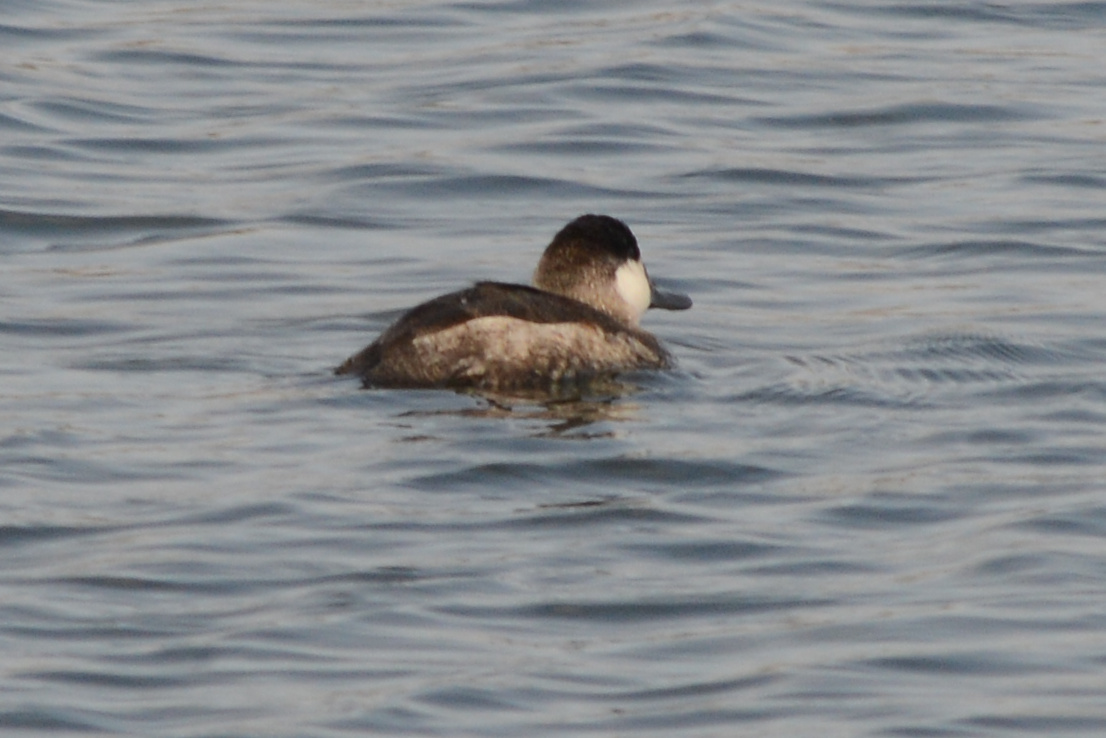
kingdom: Animalia
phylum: Chordata
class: Aves
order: Anseriformes
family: Anatidae
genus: Oxyura
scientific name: Oxyura jamaicensis
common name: Ruddy duck
